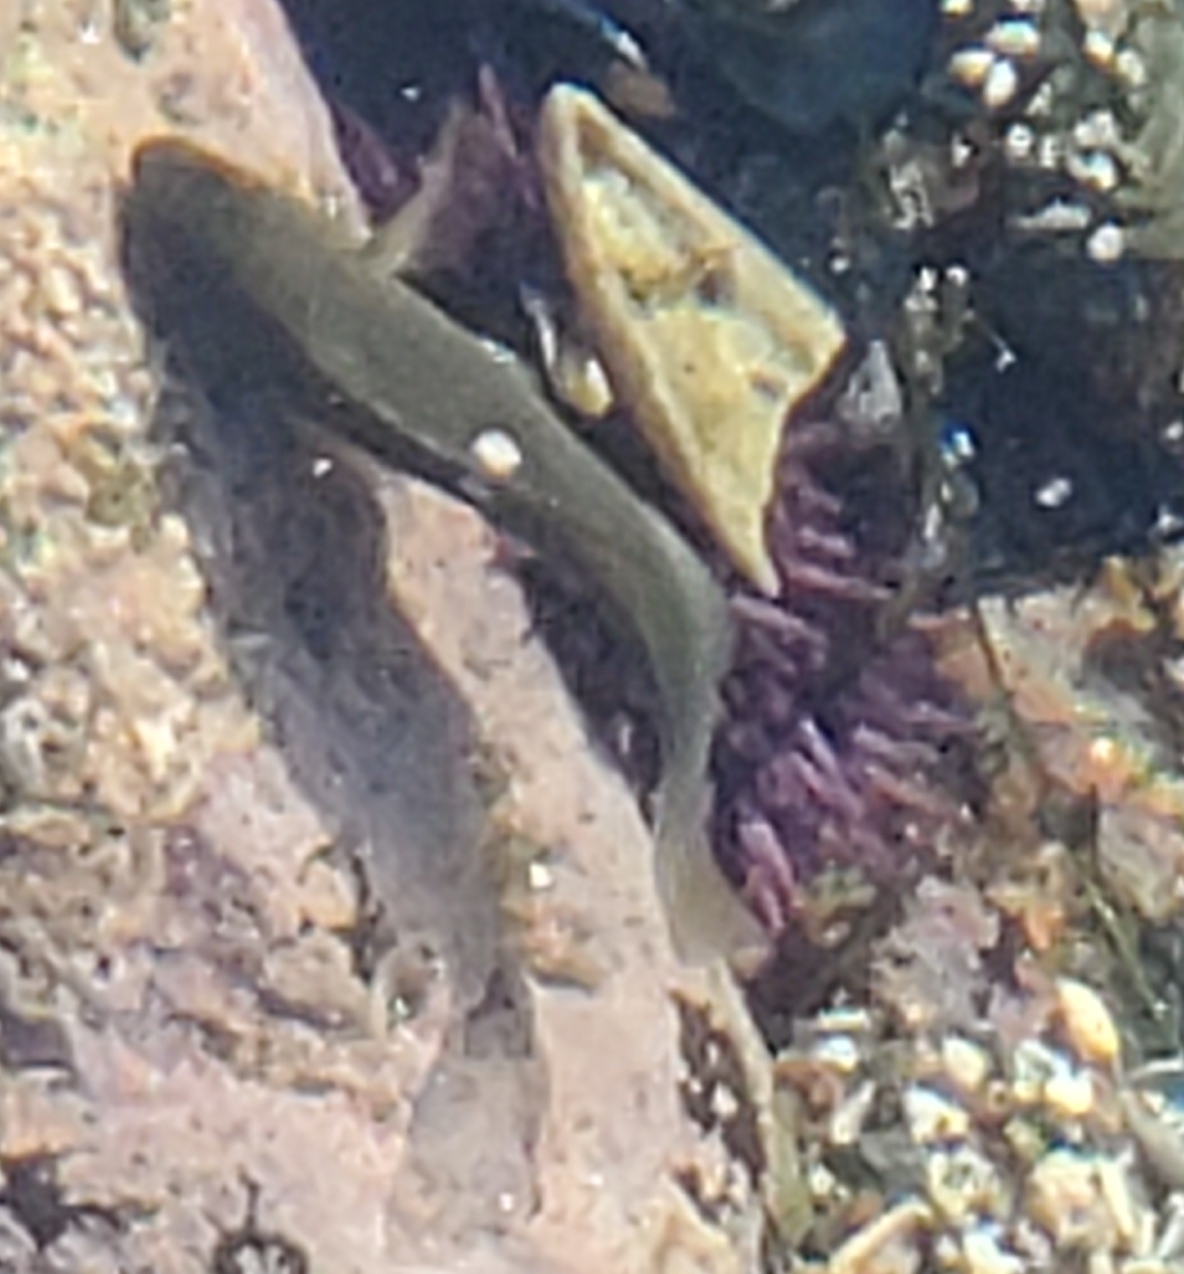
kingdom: Animalia
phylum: Chordata
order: Perciformes
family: Kyphosidae
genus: Girella
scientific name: Girella nigricans
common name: Opaleye
